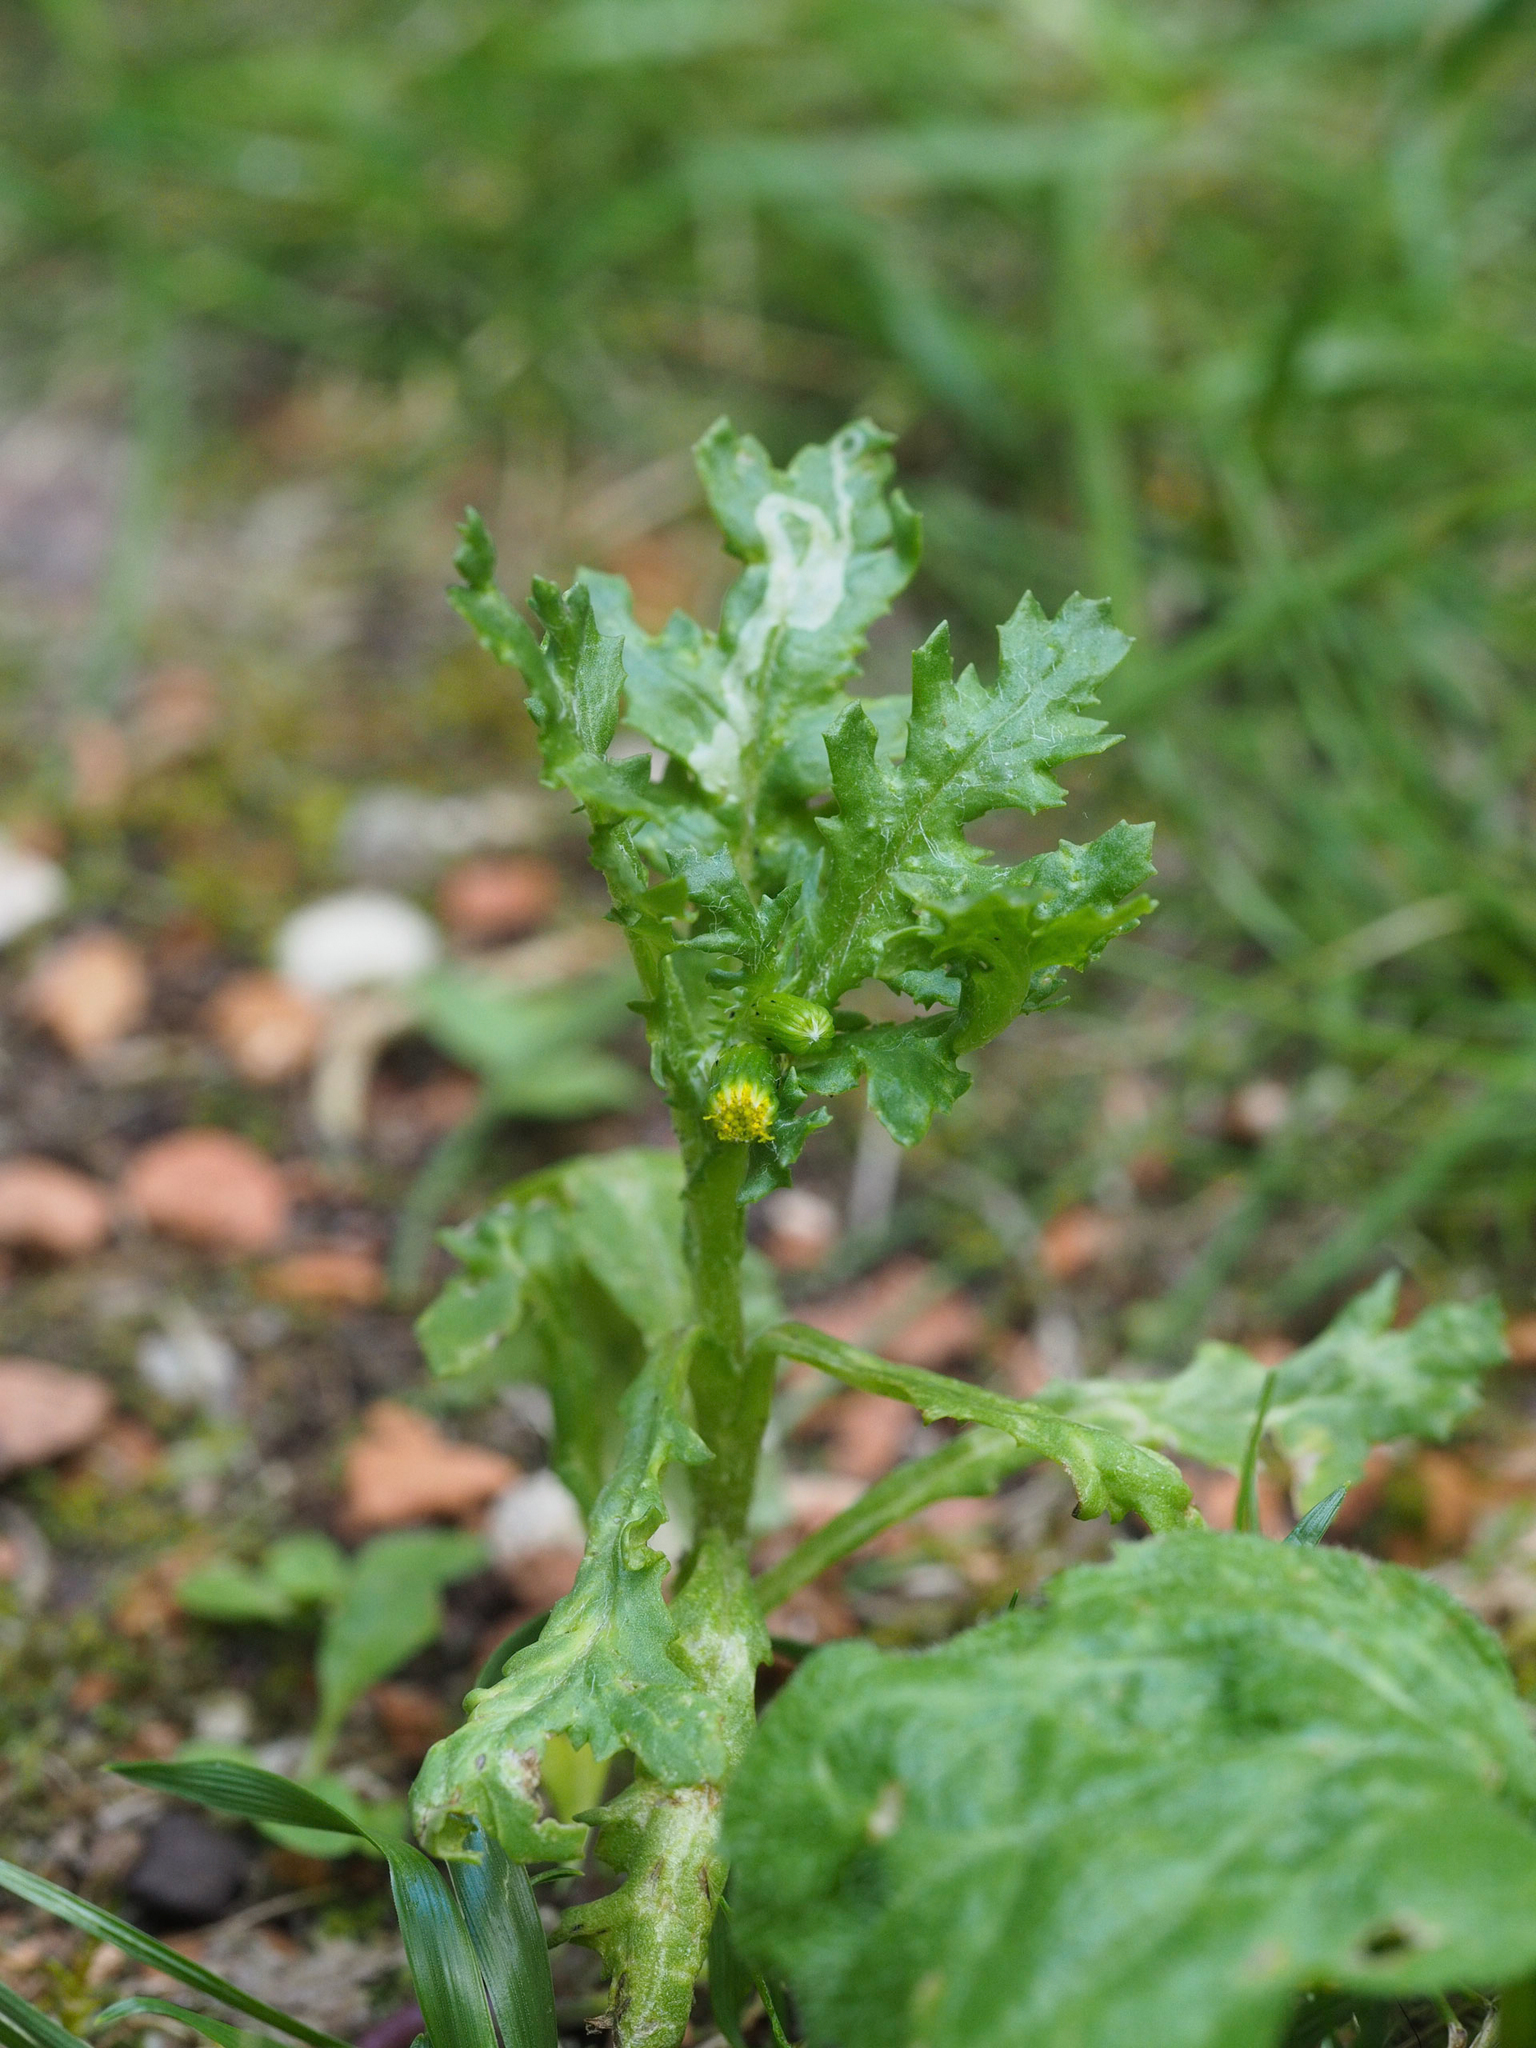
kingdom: Plantae
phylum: Tracheophyta
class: Magnoliopsida
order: Asterales
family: Asteraceae
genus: Senecio
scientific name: Senecio vulgaris
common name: Old-man-in-the-spring
